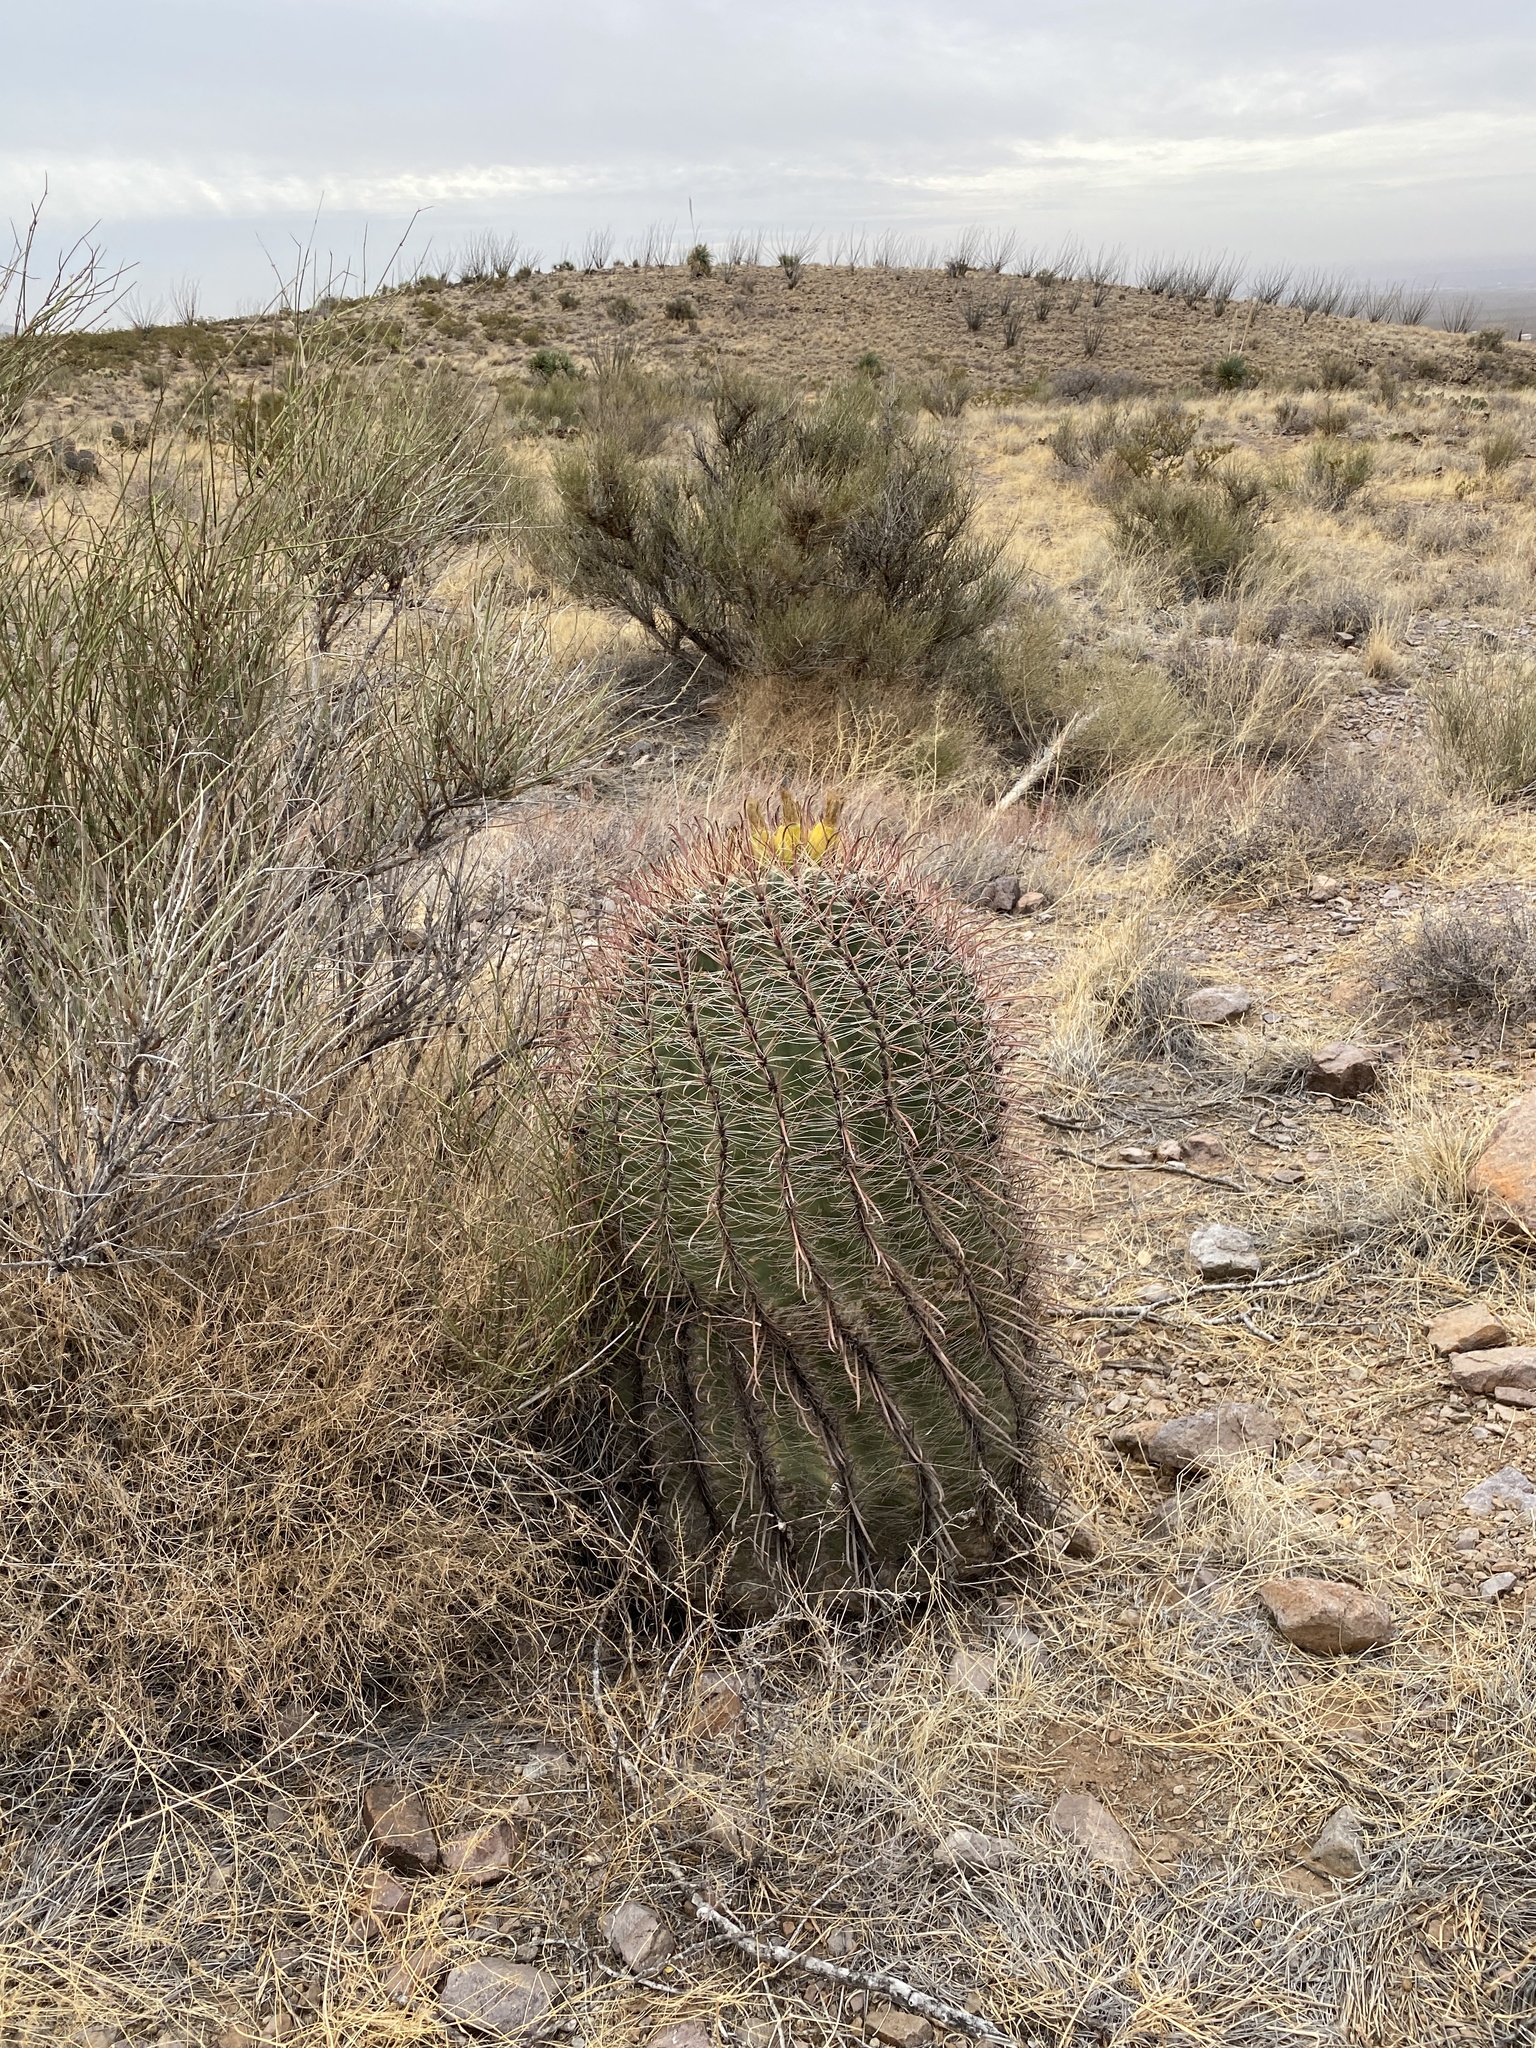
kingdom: Plantae
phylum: Tracheophyta
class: Magnoliopsida
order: Caryophyllales
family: Cactaceae
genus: Ferocactus
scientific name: Ferocactus wislizeni
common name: Candy barrel cactus
